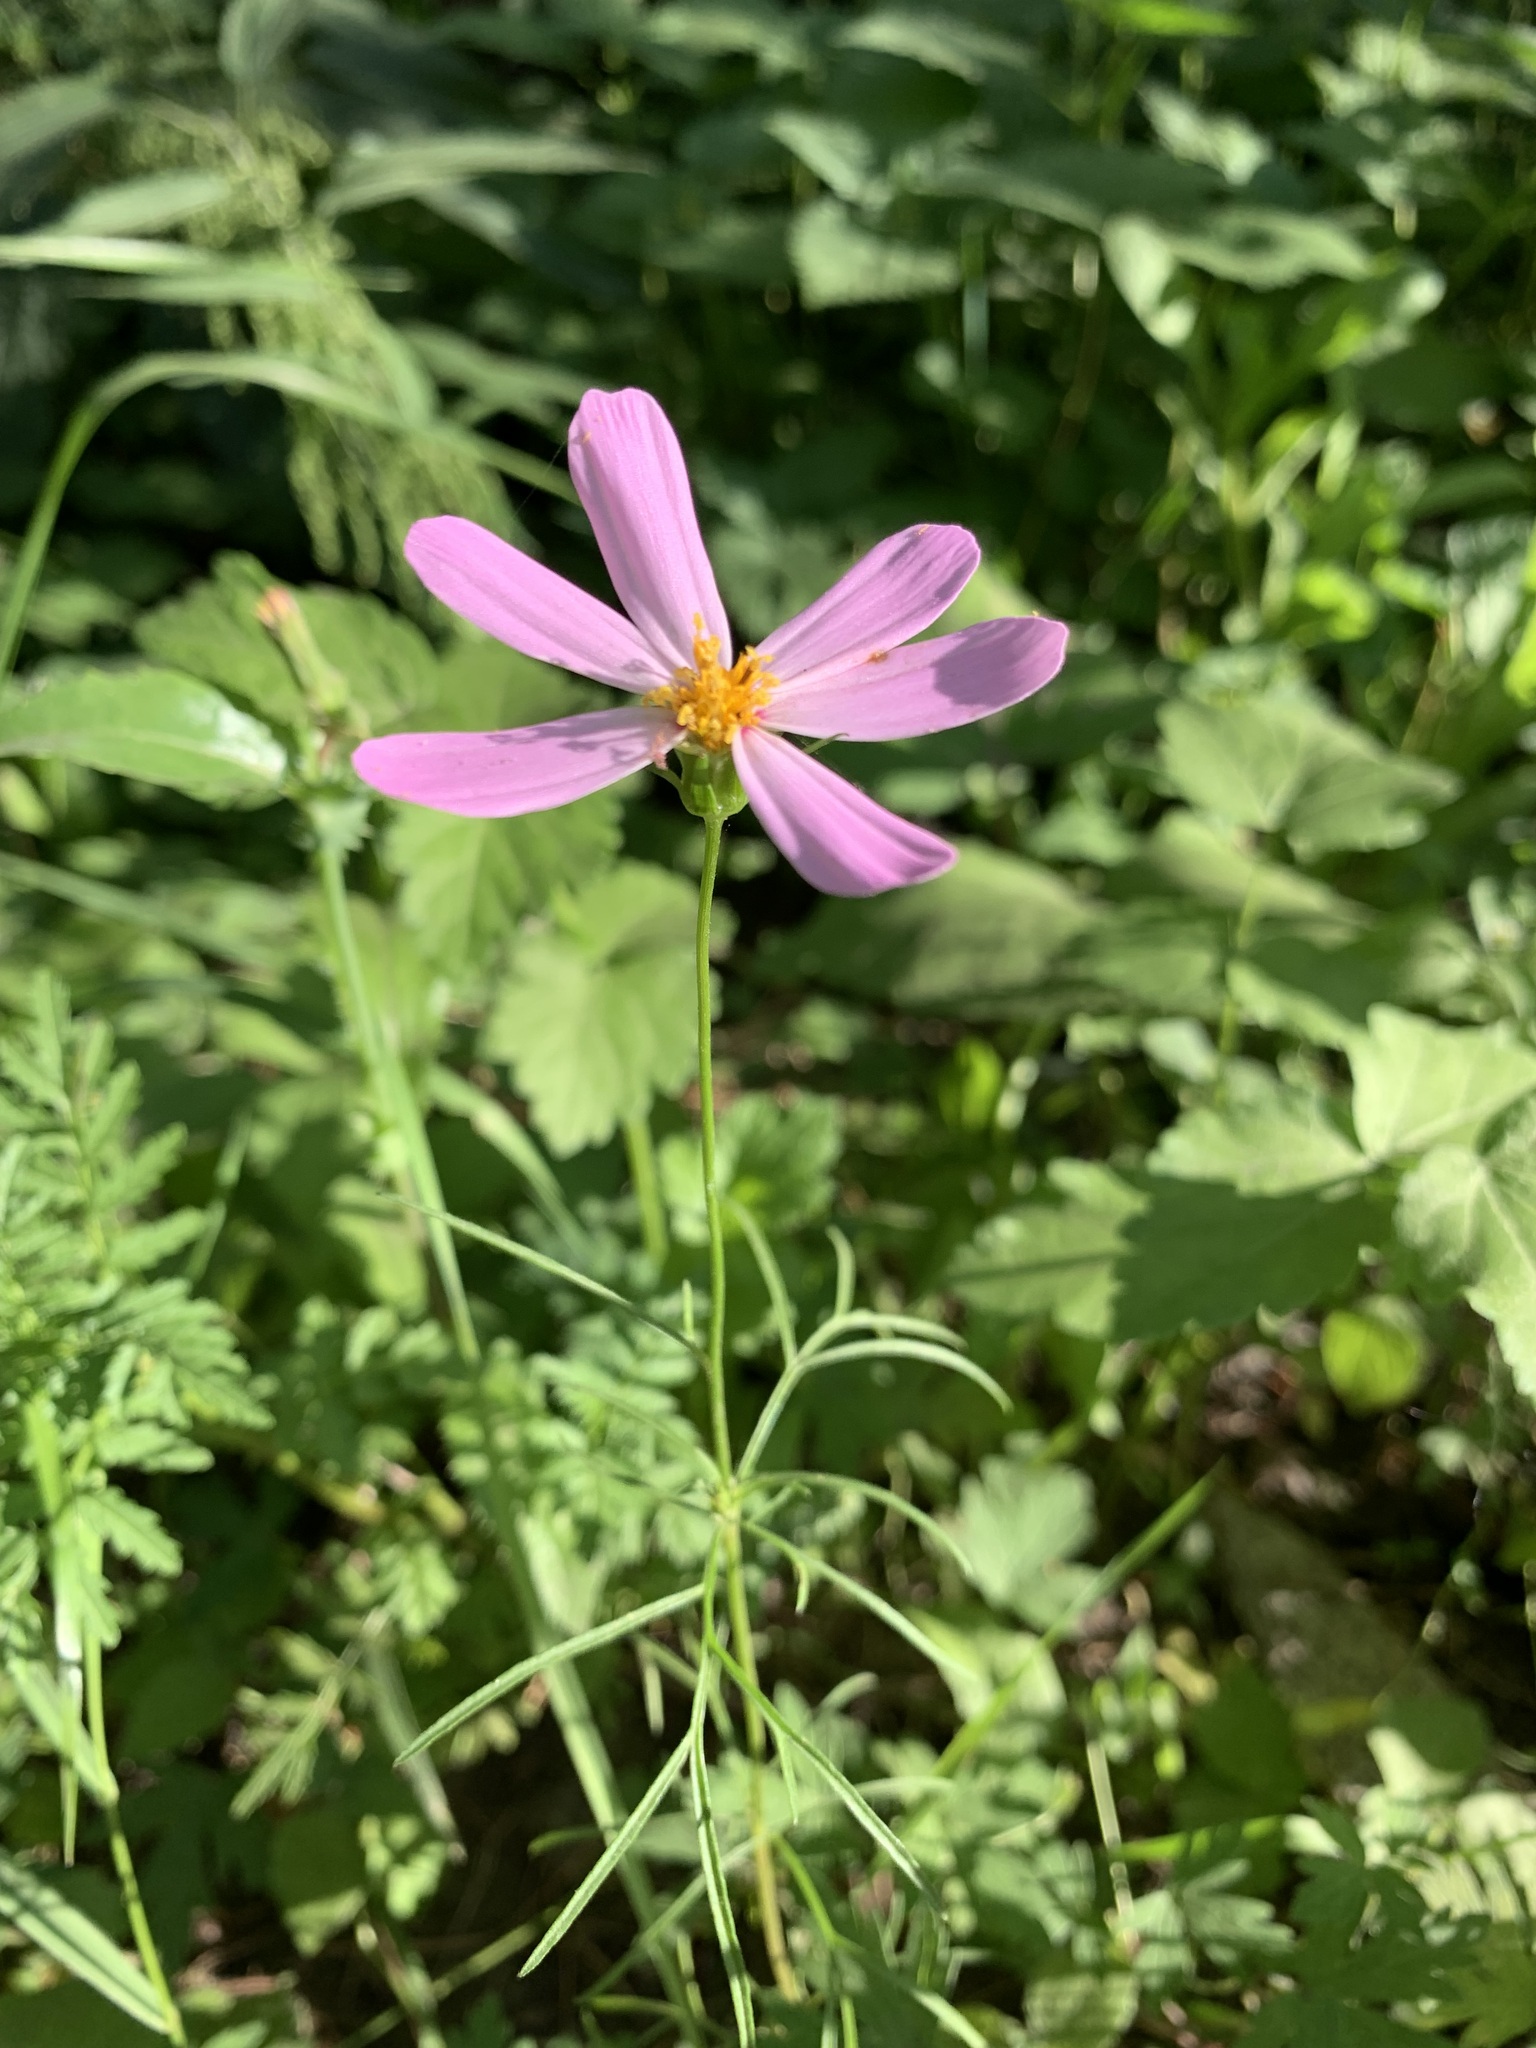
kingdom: Plantae
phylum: Tracheophyta
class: Magnoliopsida
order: Asterales
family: Asteraceae
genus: Cosmos
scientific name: Cosmos bipinnatus
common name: Garden cosmos
